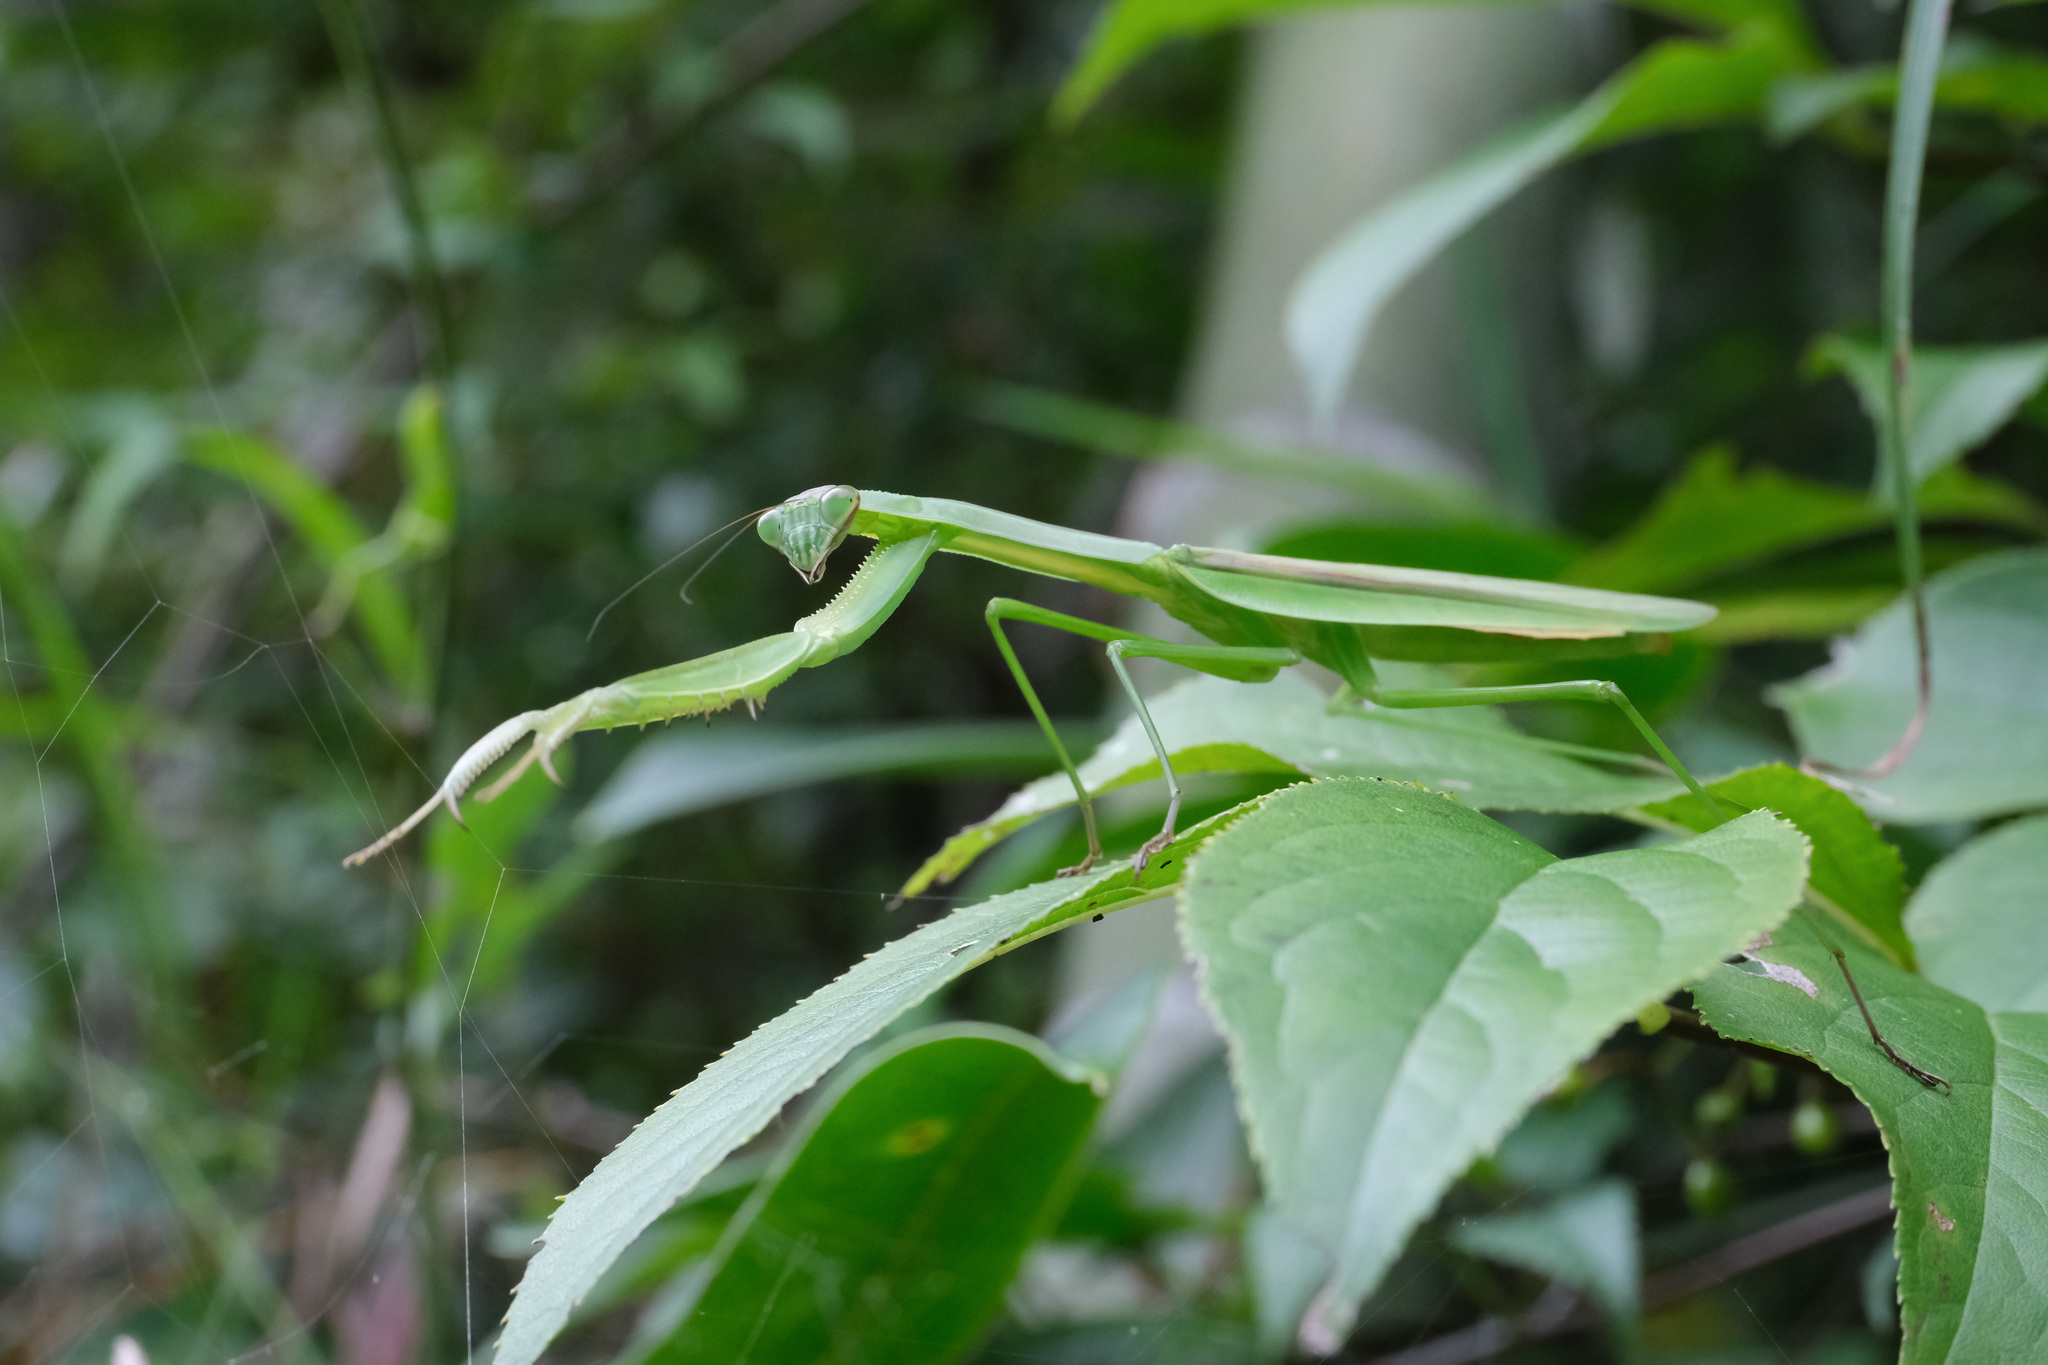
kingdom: Animalia
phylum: Arthropoda
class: Insecta
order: Mantodea
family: Mantidae
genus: Tenodera
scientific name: Tenodera sinensis
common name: Chinese mantis
